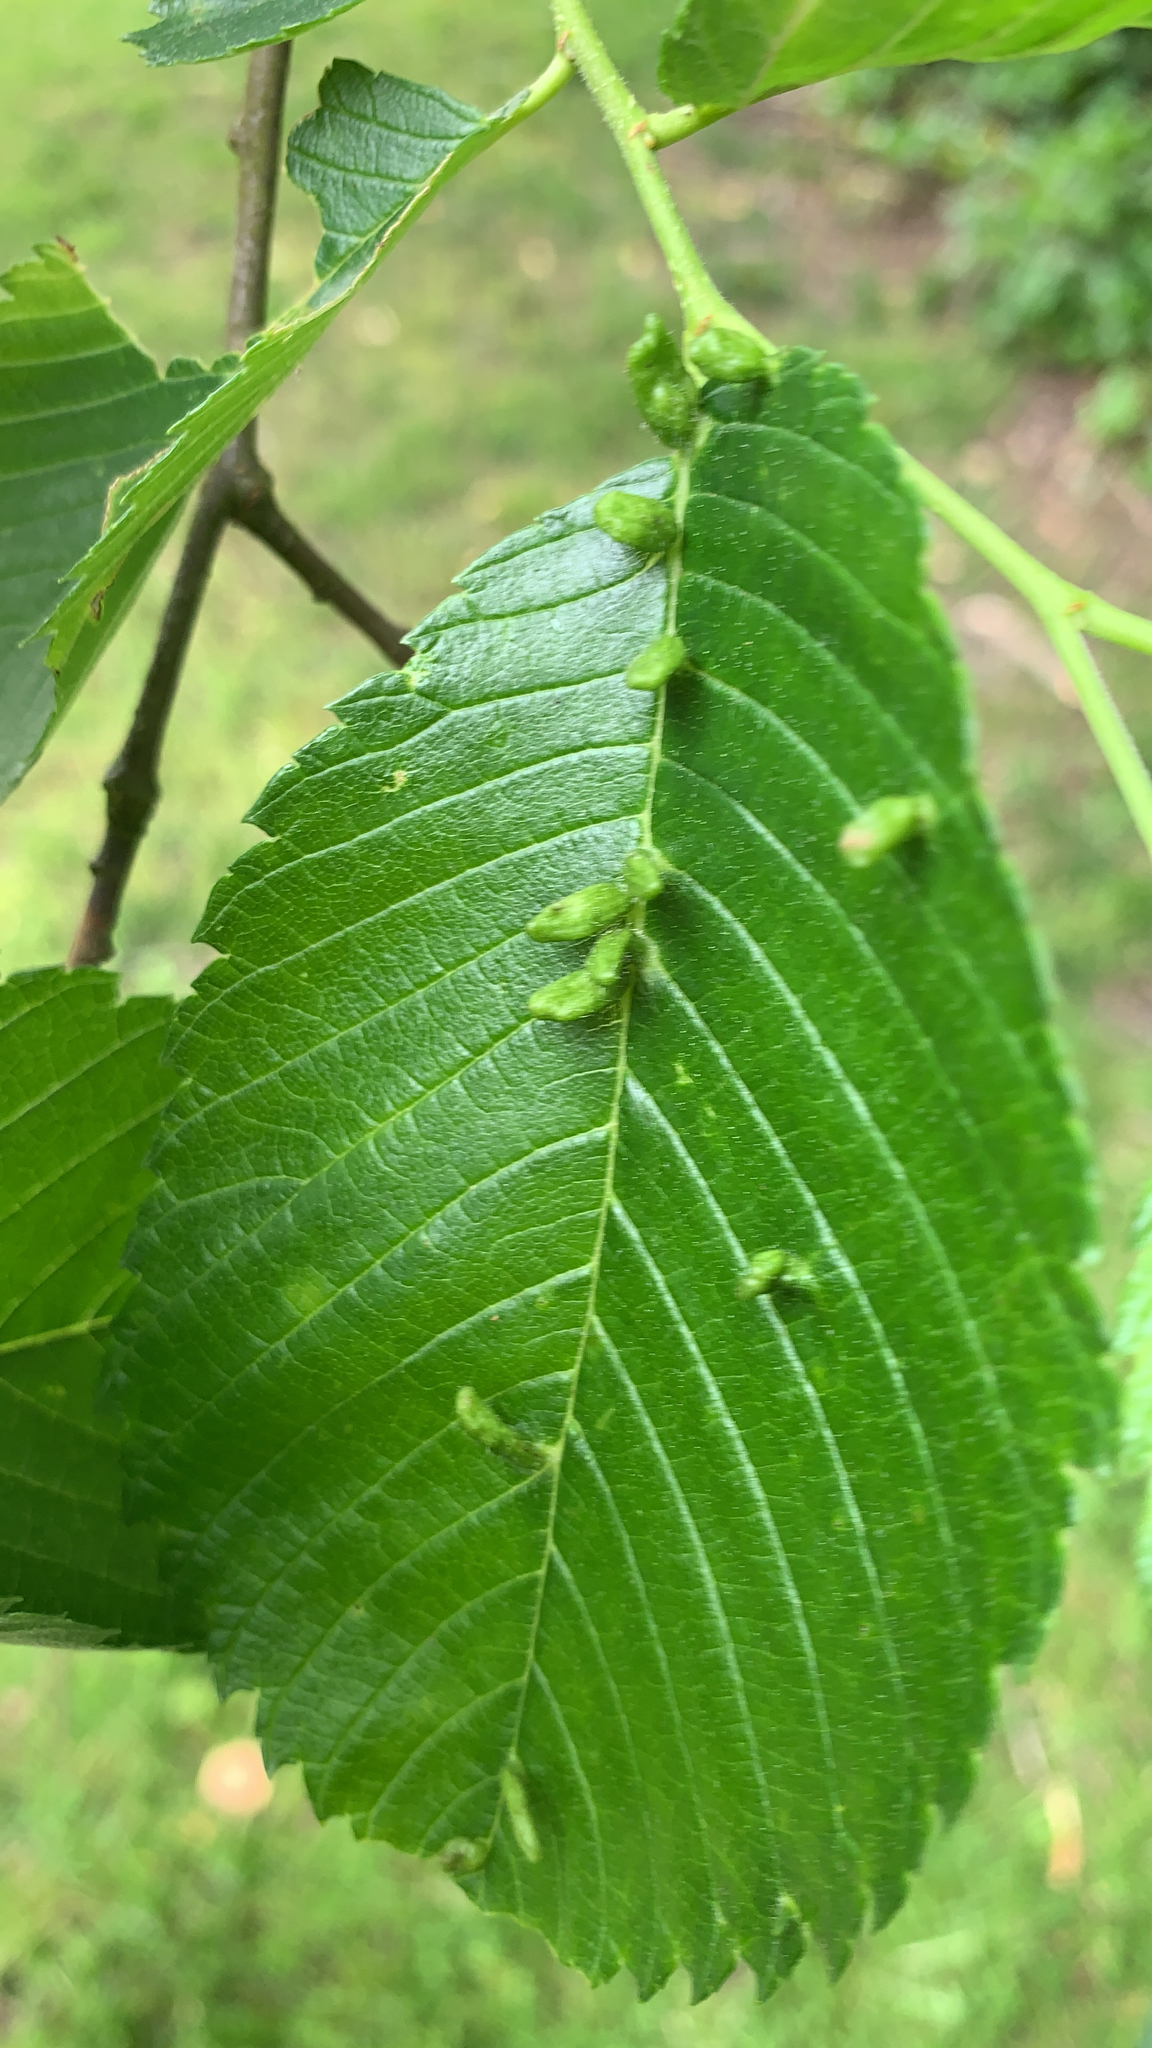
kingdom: Animalia
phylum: Arthropoda
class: Arachnida
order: Trombidiformes
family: Eriophyidae
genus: Aceria
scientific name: Aceria
